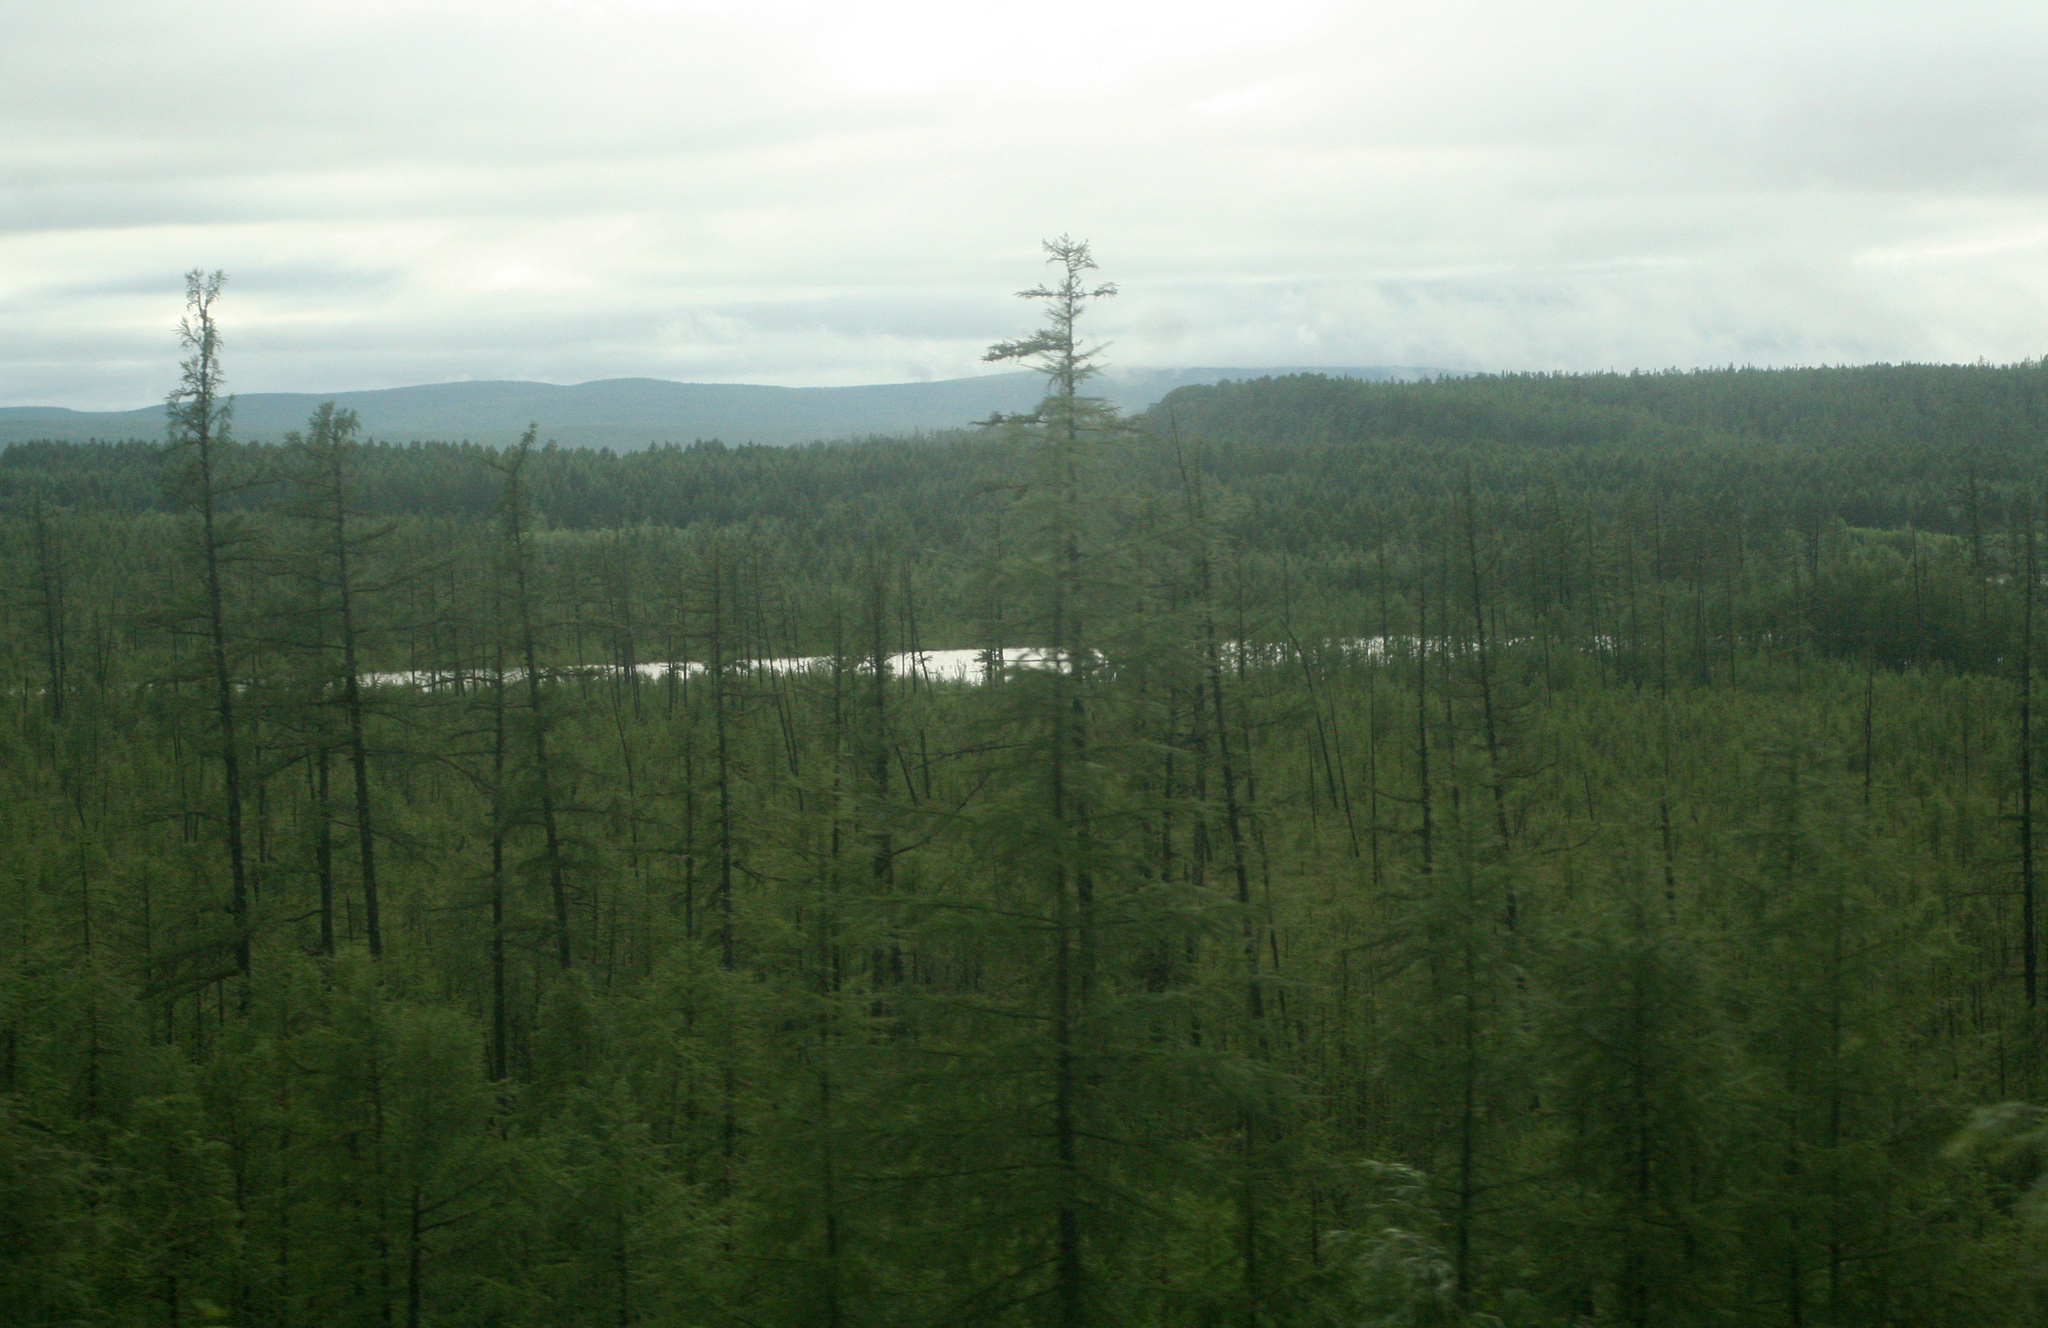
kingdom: Plantae
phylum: Tracheophyta
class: Pinopsida
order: Pinales
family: Pinaceae
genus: Larix
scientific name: Larix gmelinii
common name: Dahurian larch
